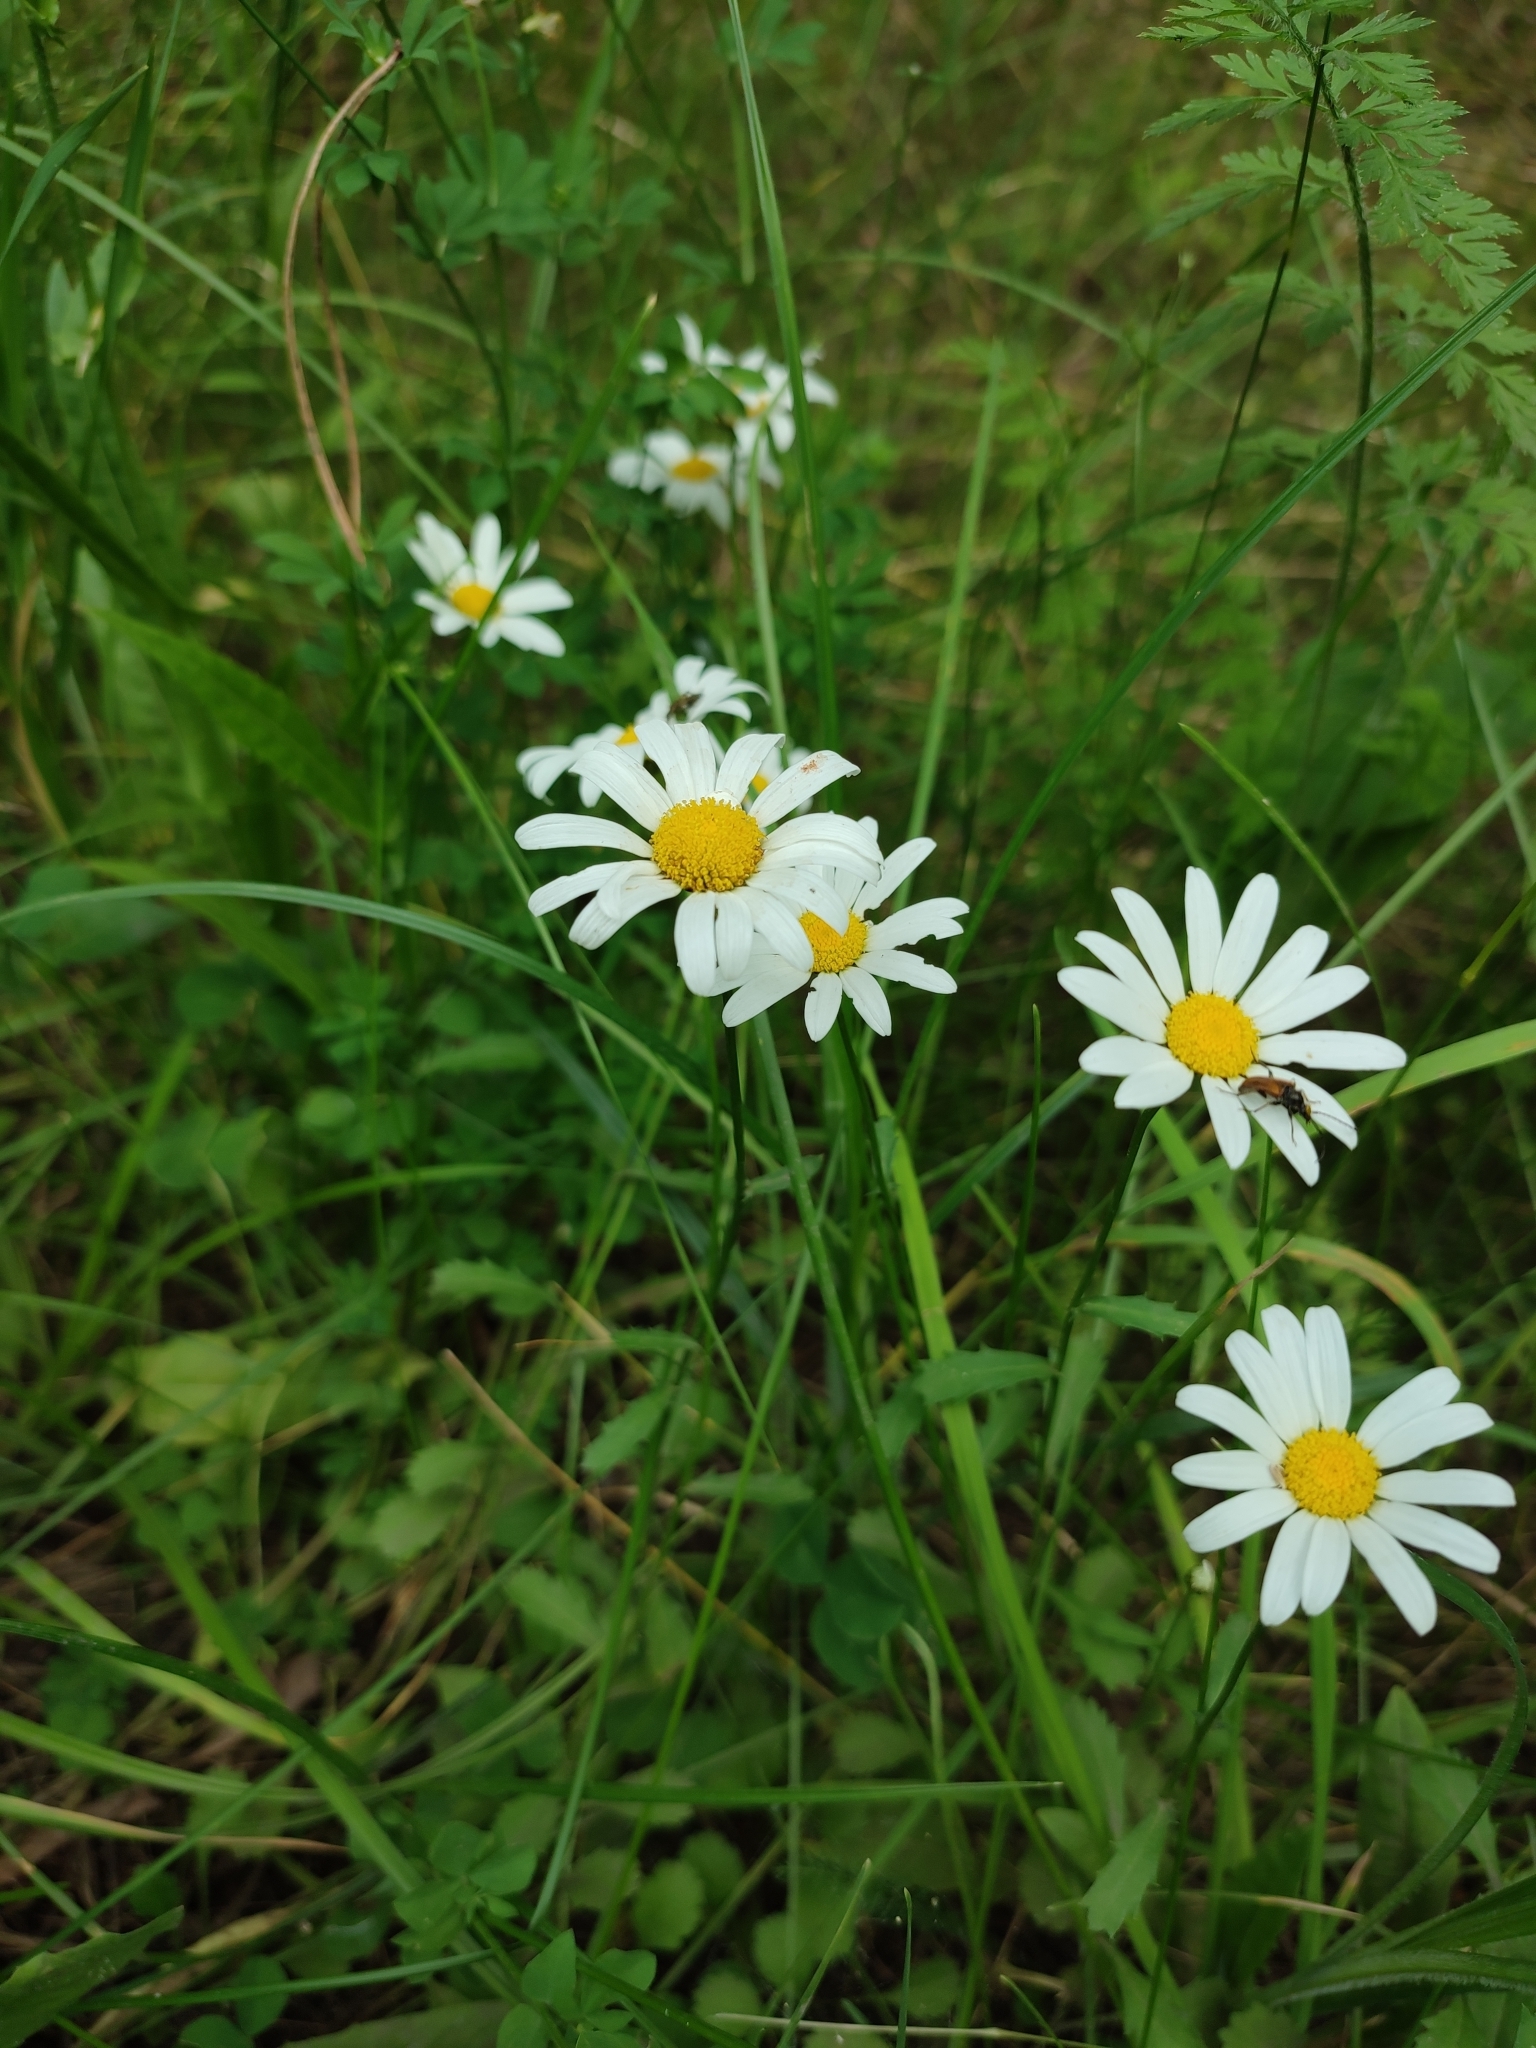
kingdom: Plantae
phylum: Tracheophyta
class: Magnoliopsida
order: Asterales
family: Asteraceae
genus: Leucanthemum
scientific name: Leucanthemum vulgare
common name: Oxeye daisy
